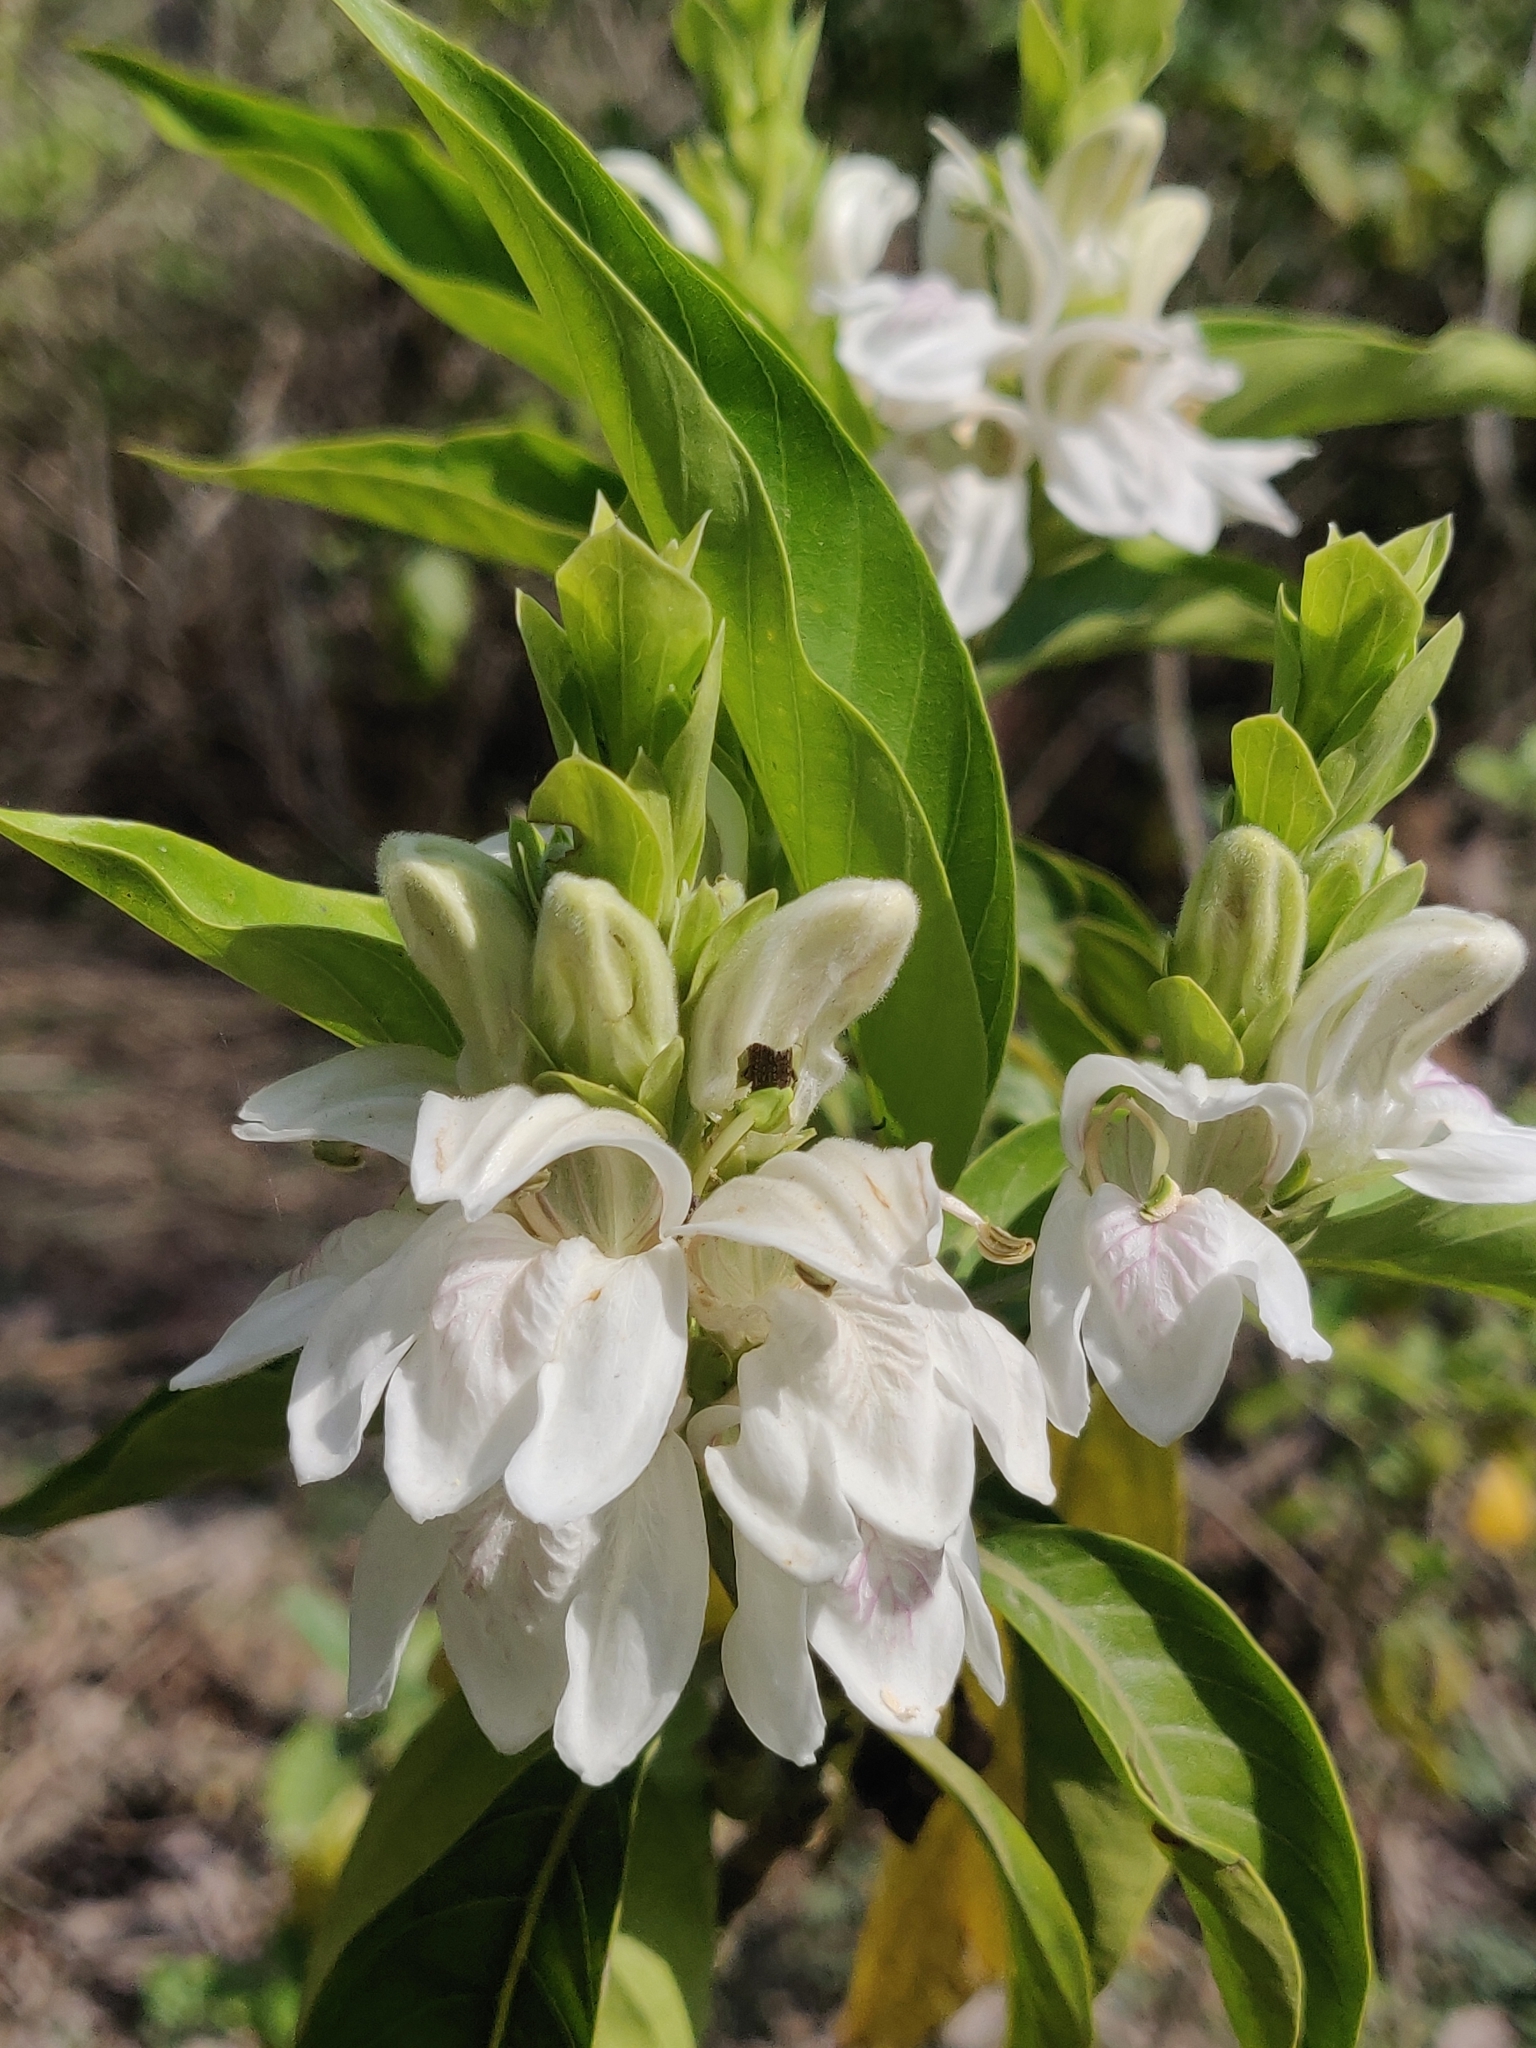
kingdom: Plantae
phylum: Tracheophyta
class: Magnoliopsida
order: Lamiales
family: Acanthaceae
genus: Justicia
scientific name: Justicia adhatoda
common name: Malabar nut
